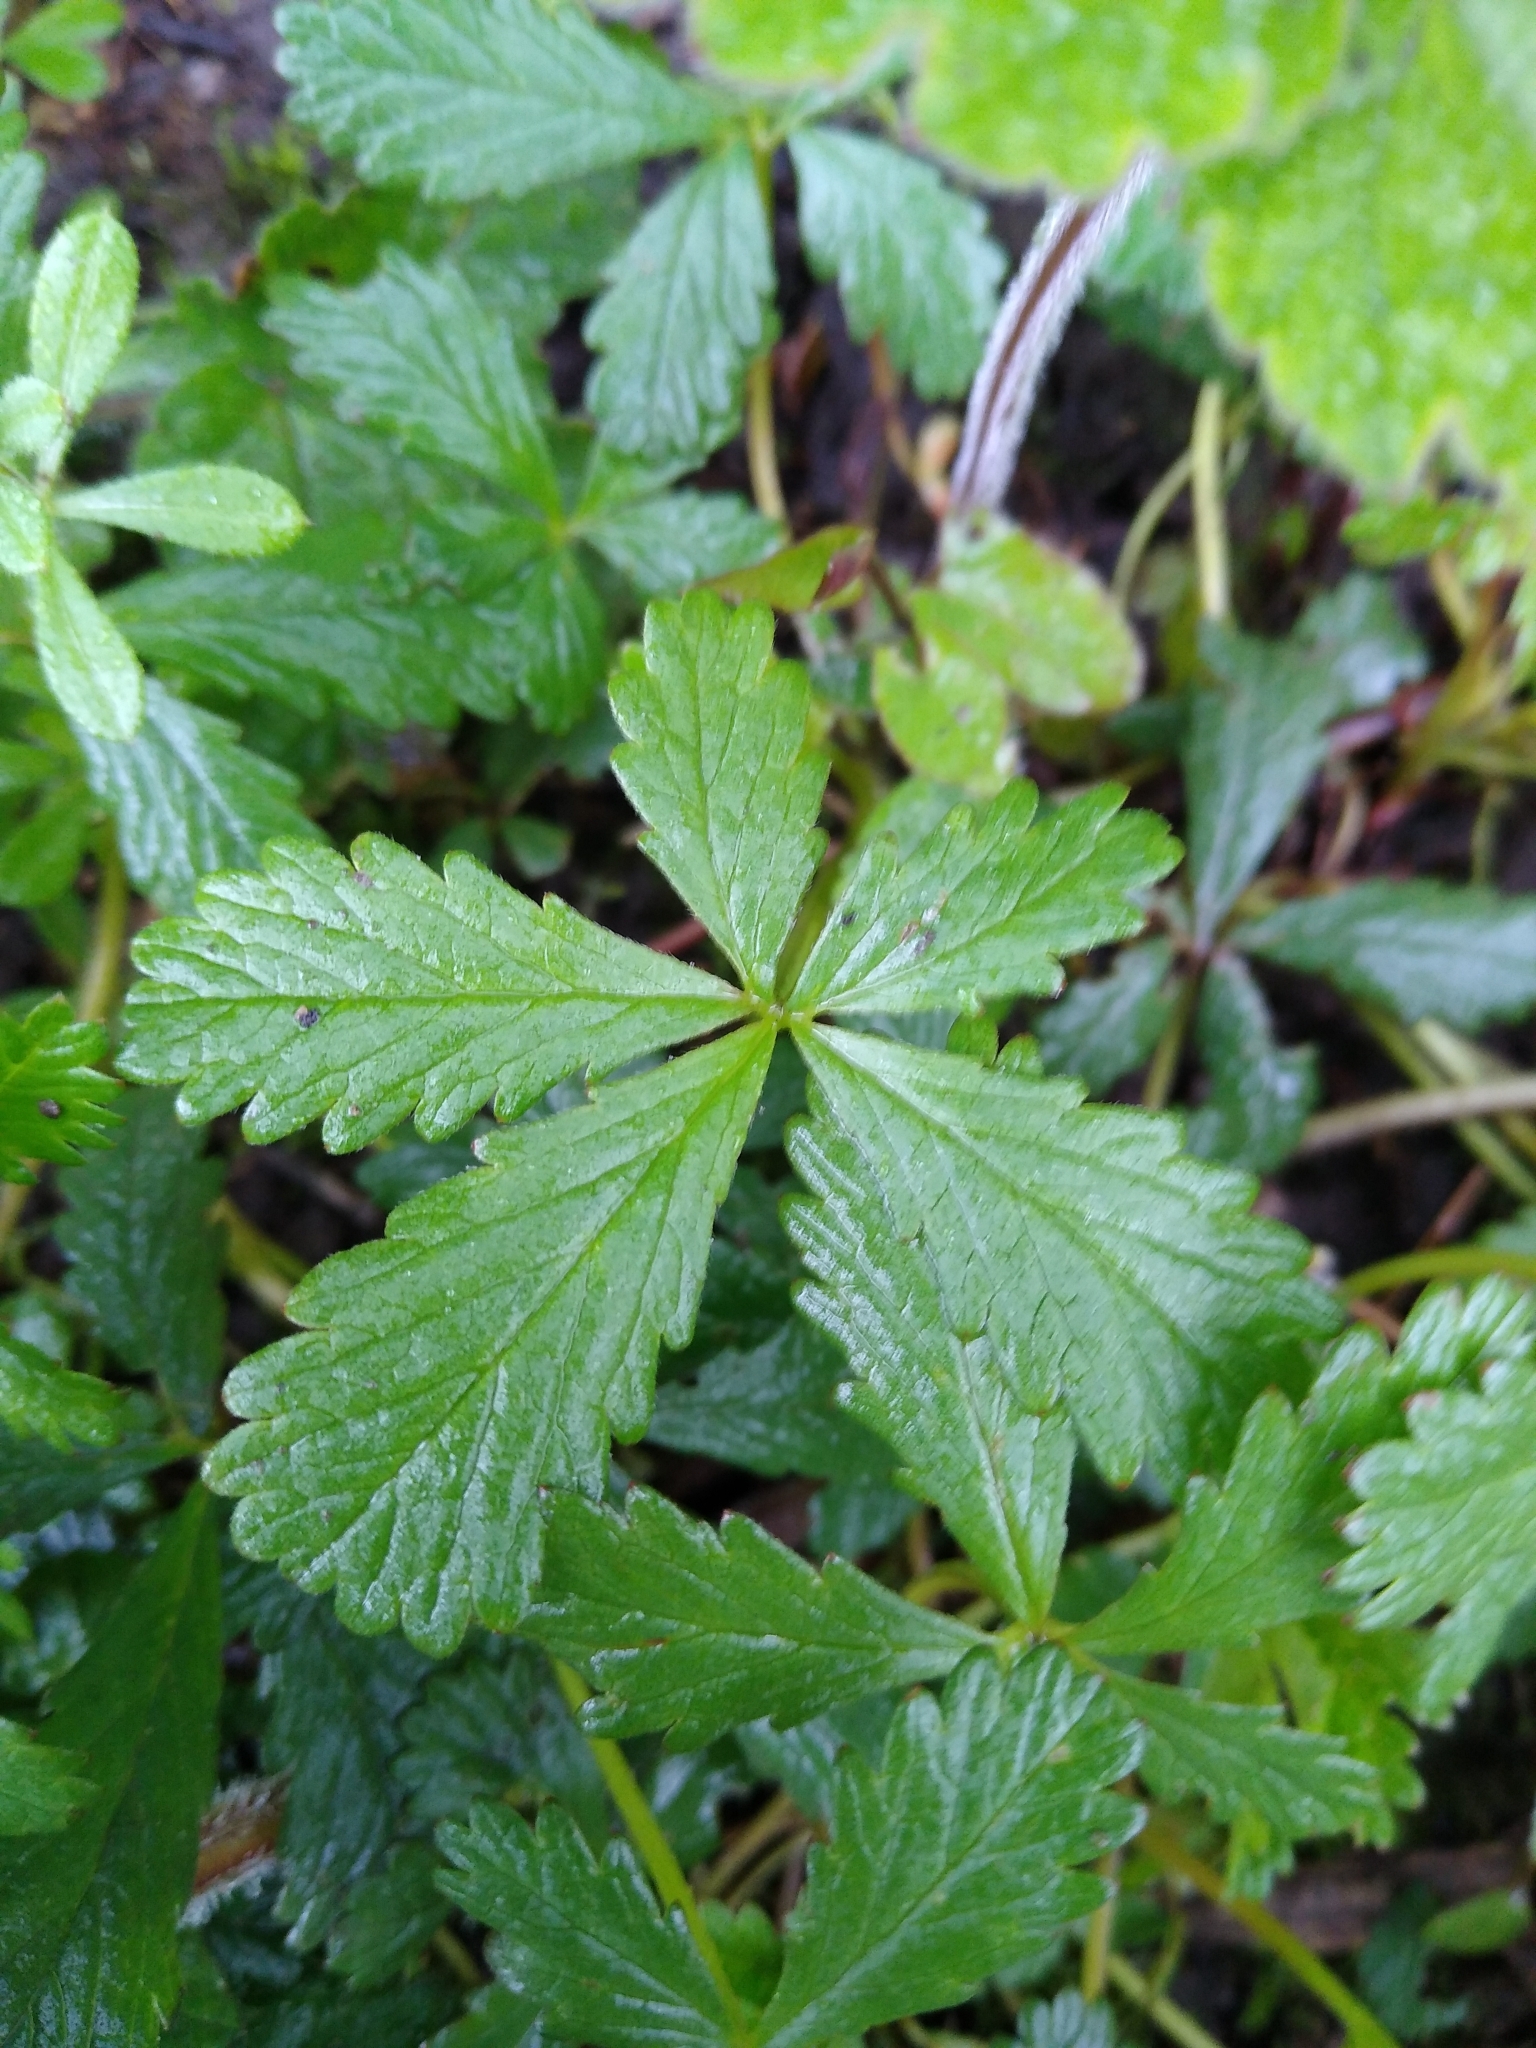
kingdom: Plantae
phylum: Tracheophyta
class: Magnoliopsida
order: Rosales
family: Rosaceae
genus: Potentilla
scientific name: Potentilla reptans
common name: Creeping cinquefoil
